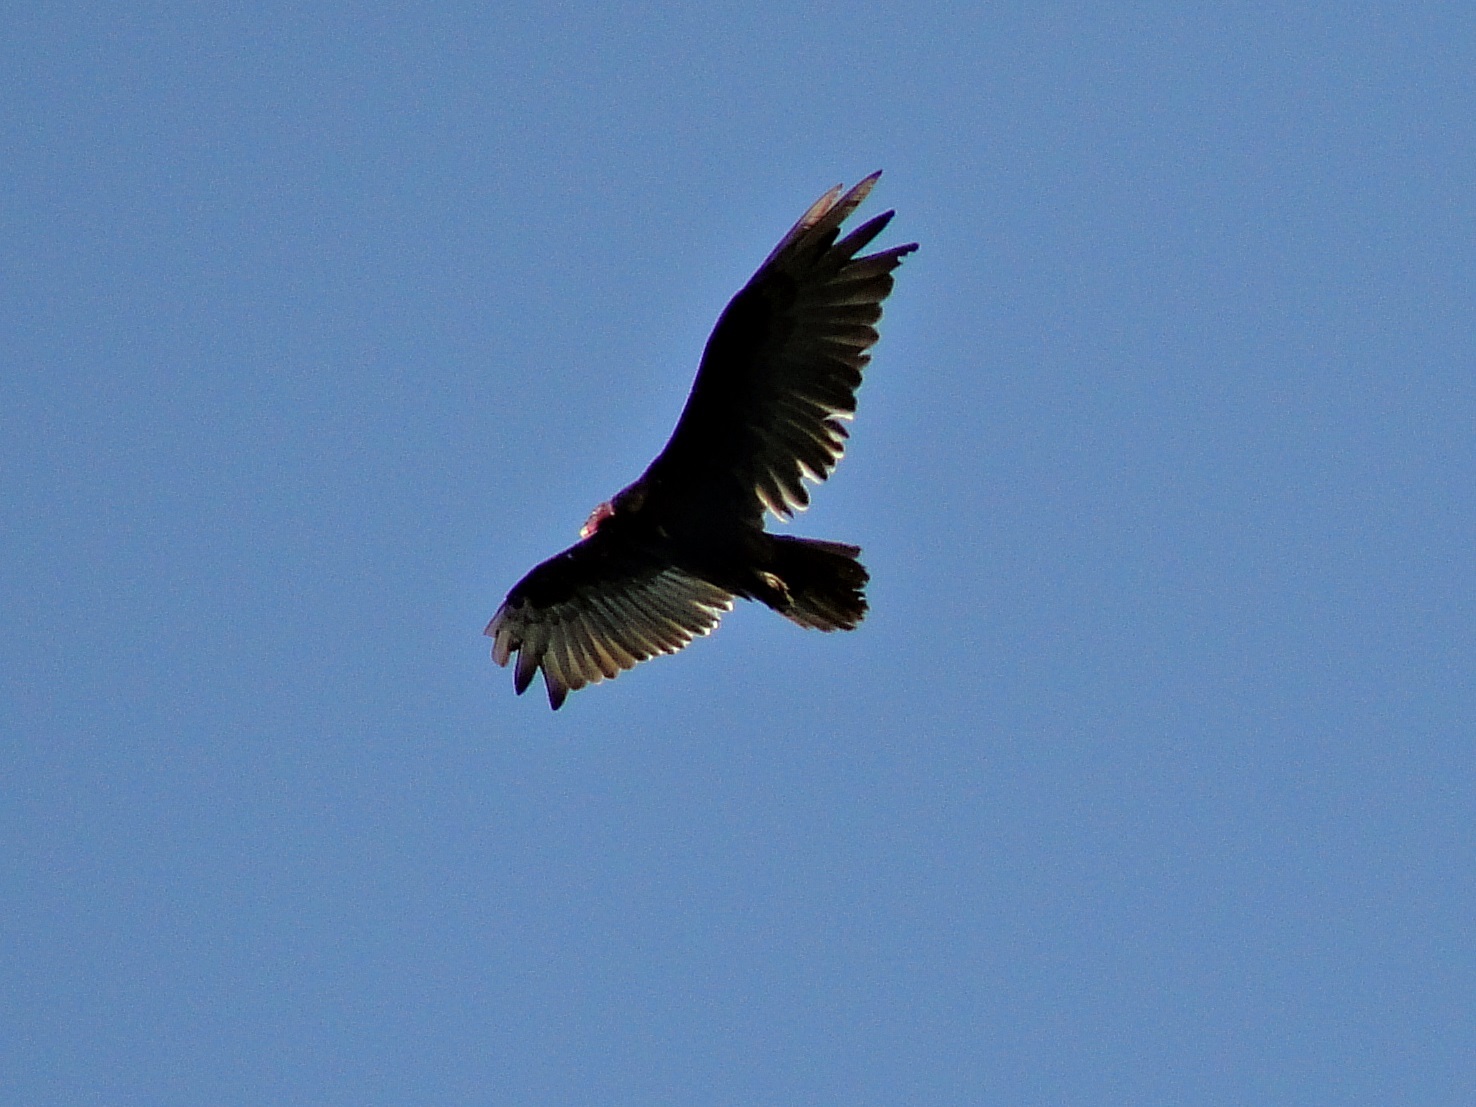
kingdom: Animalia
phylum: Chordata
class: Aves
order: Accipitriformes
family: Cathartidae
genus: Cathartes
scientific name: Cathartes aura
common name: Turkey vulture
